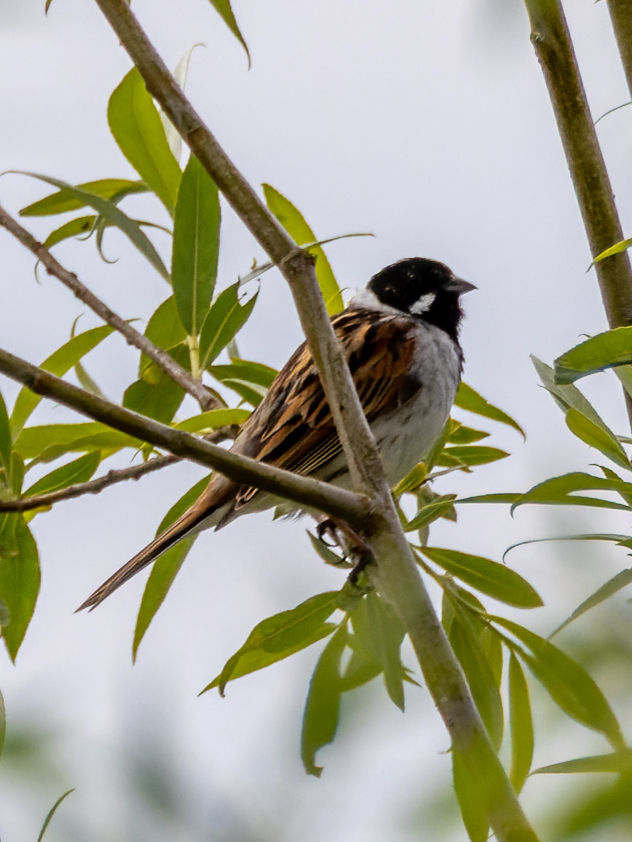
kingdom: Animalia
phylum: Chordata
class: Aves
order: Passeriformes
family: Emberizidae
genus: Emberiza
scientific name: Emberiza schoeniclus
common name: Reed bunting
